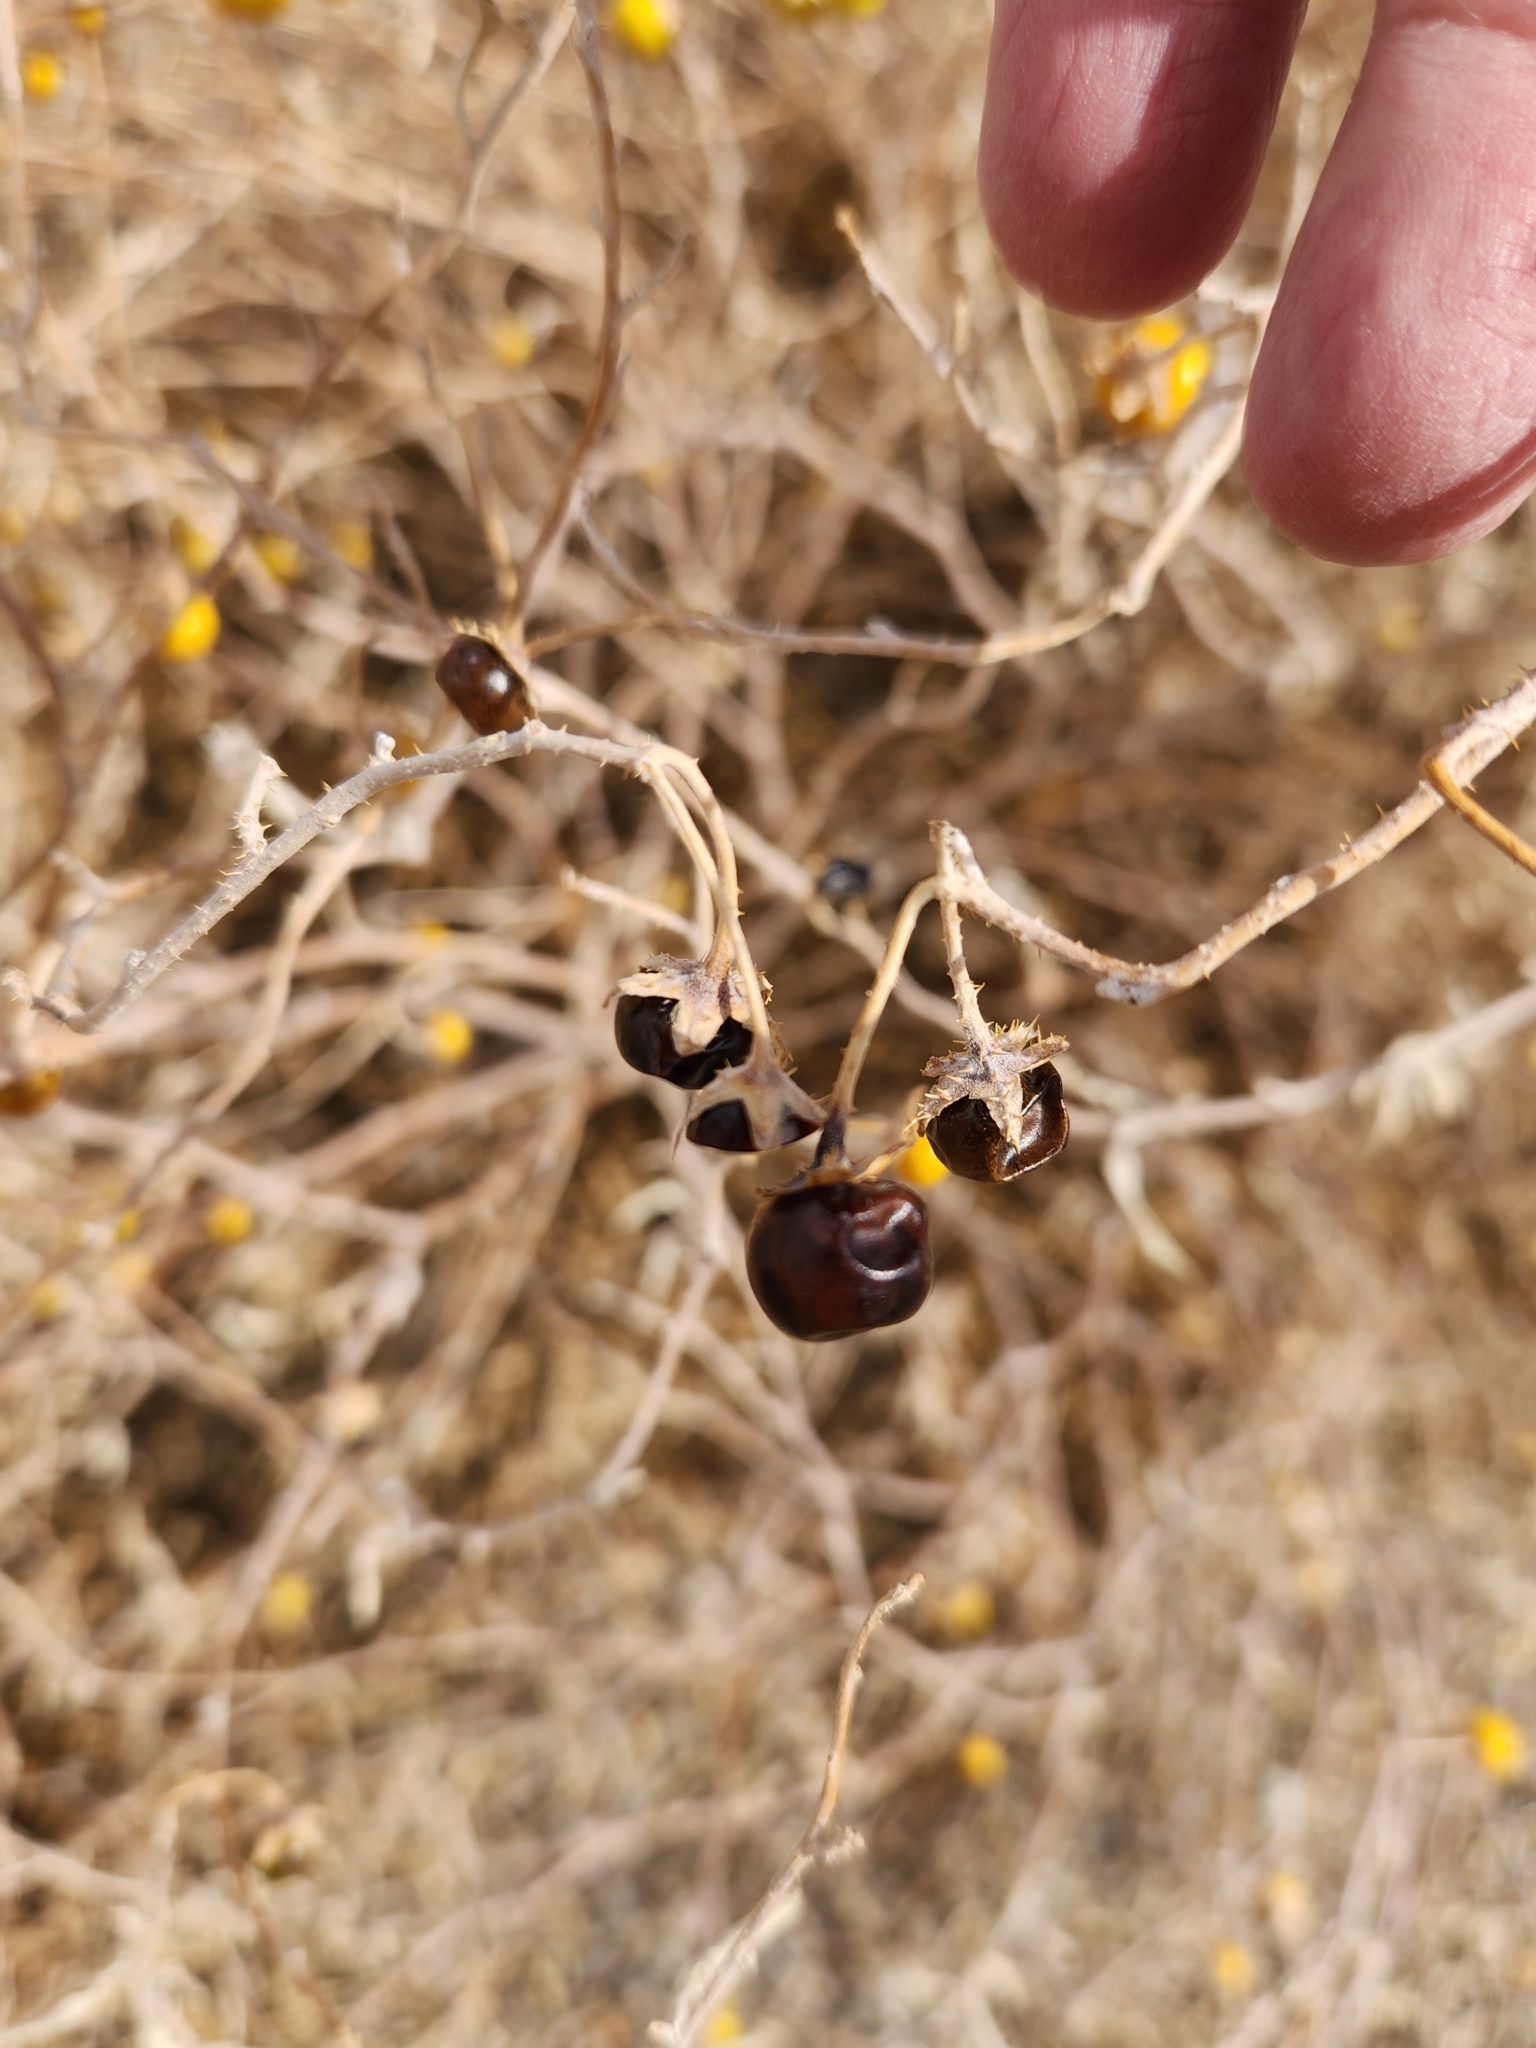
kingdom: Plantae
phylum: Tracheophyta
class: Magnoliopsida
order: Solanales
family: Solanaceae
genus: Solanum
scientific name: Solanum elaeagnifolium
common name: Silverleaf nightshade
